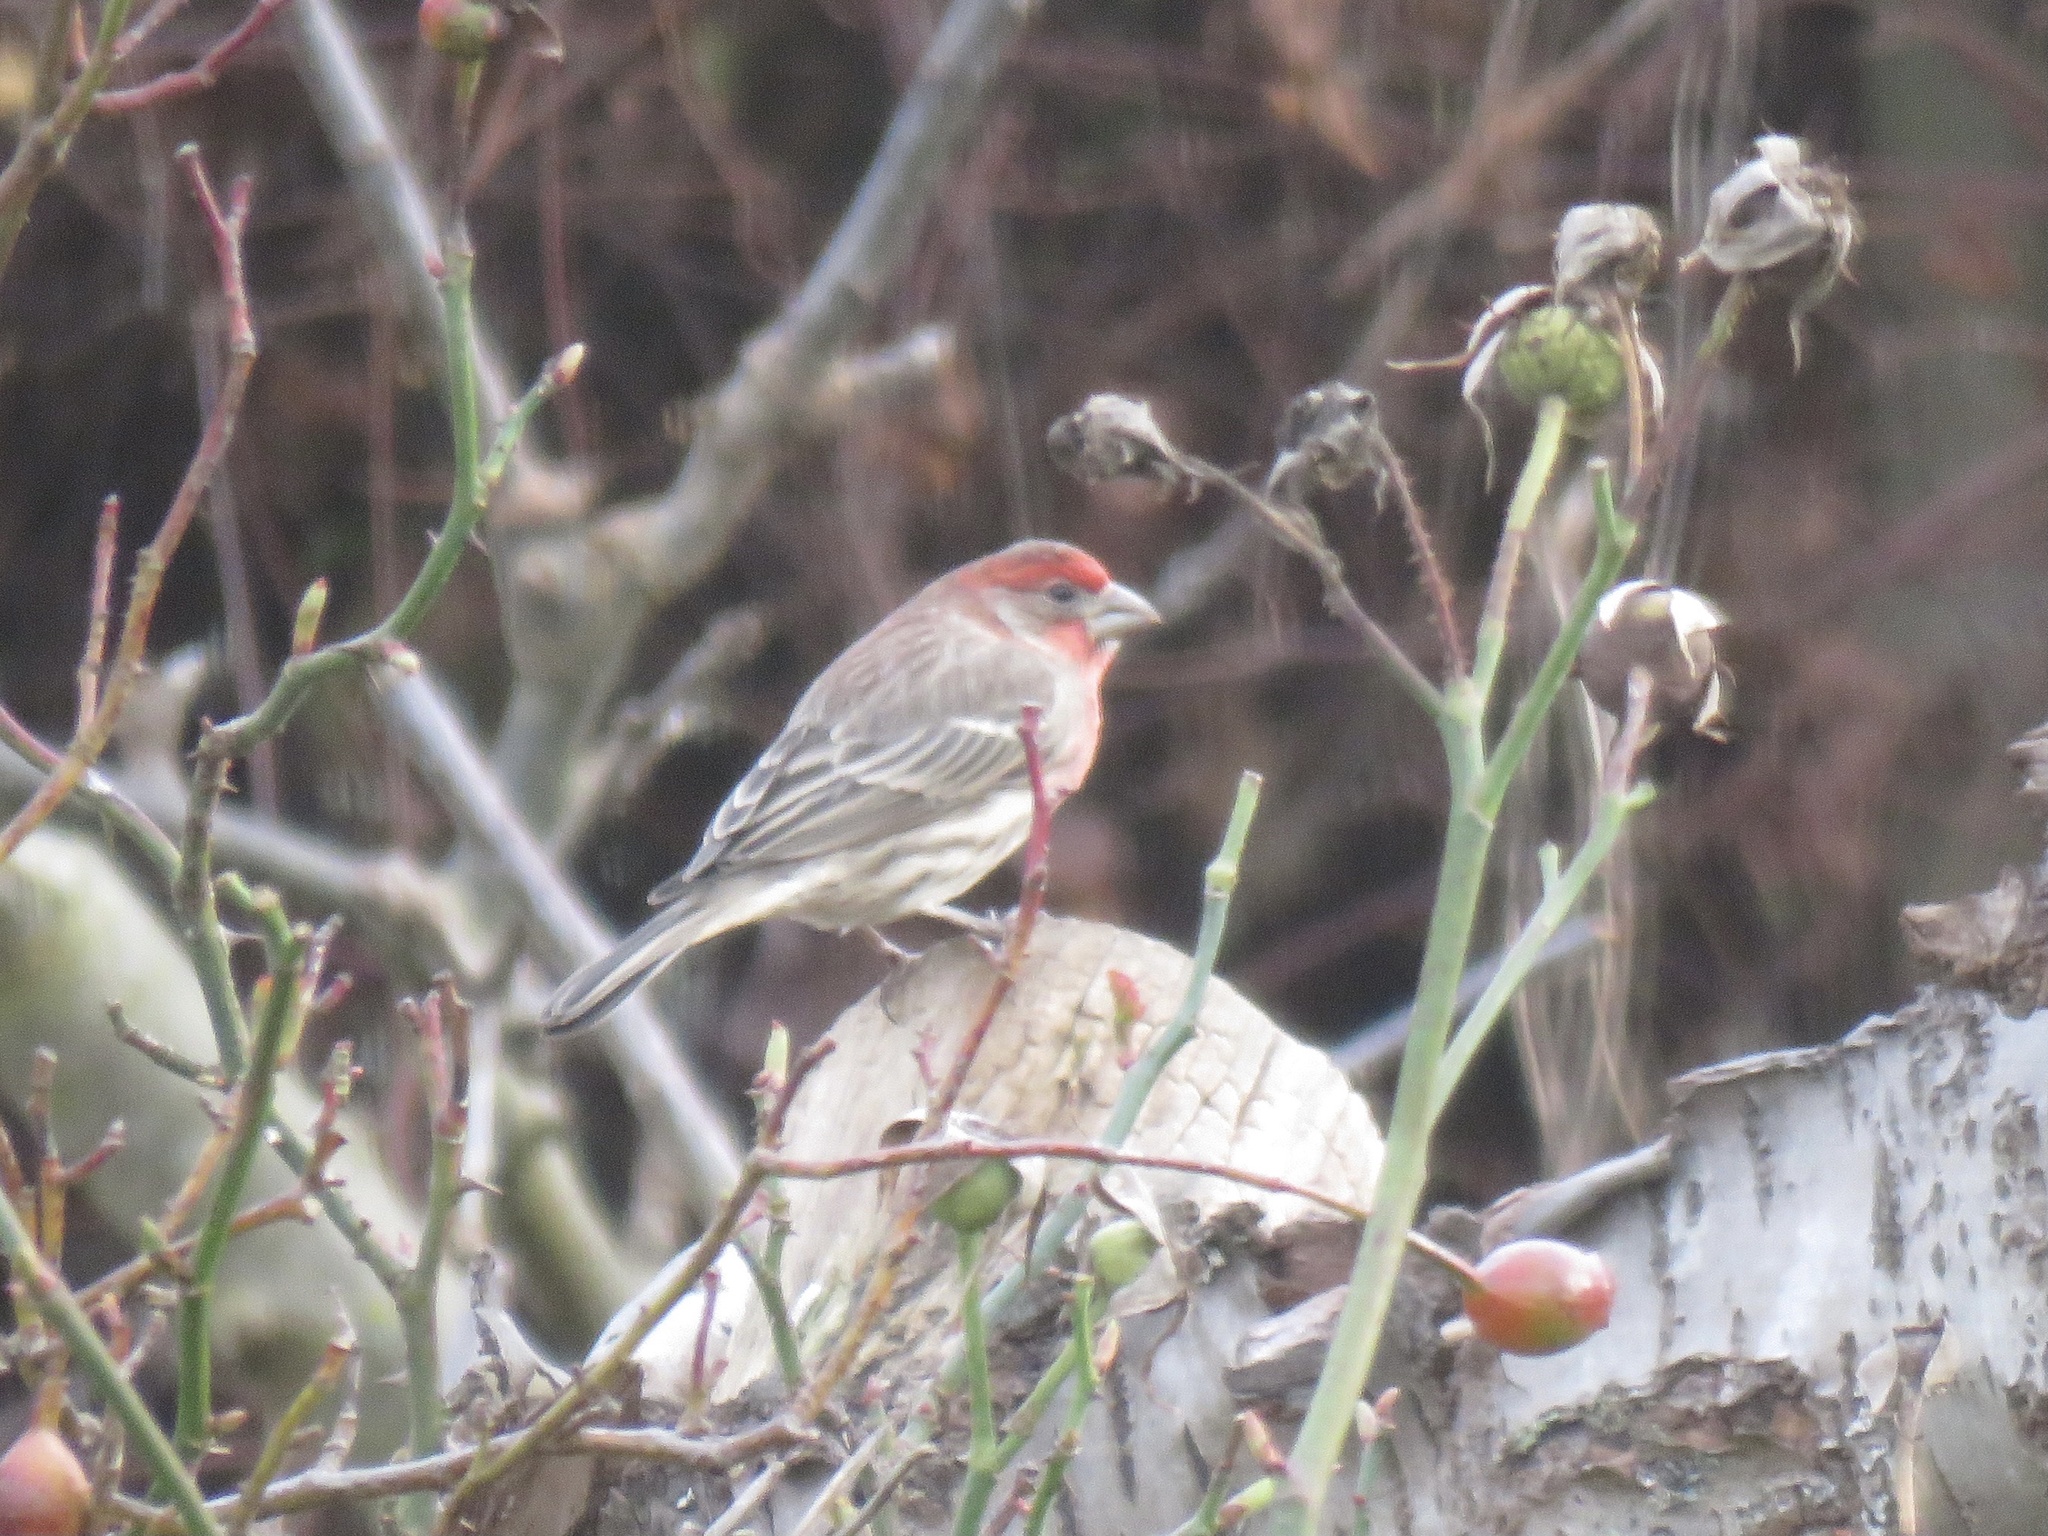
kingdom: Animalia
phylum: Chordata
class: Aves
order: Passeriformes
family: Fringillidae
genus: Haemorhous
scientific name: Haemorhous mexicanus
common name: House finch
